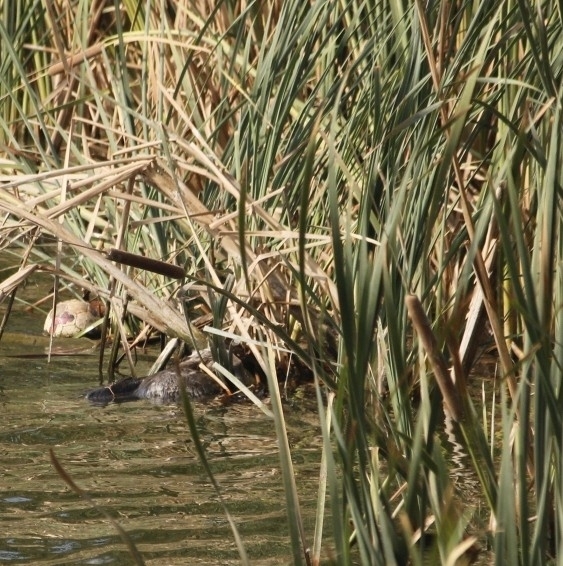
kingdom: Animalia
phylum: Chordata
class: Aves
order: Pelecaniformes
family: Pelecanidae
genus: Pelecanus
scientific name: Pelecanus occidentalis
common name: Brown pelican
